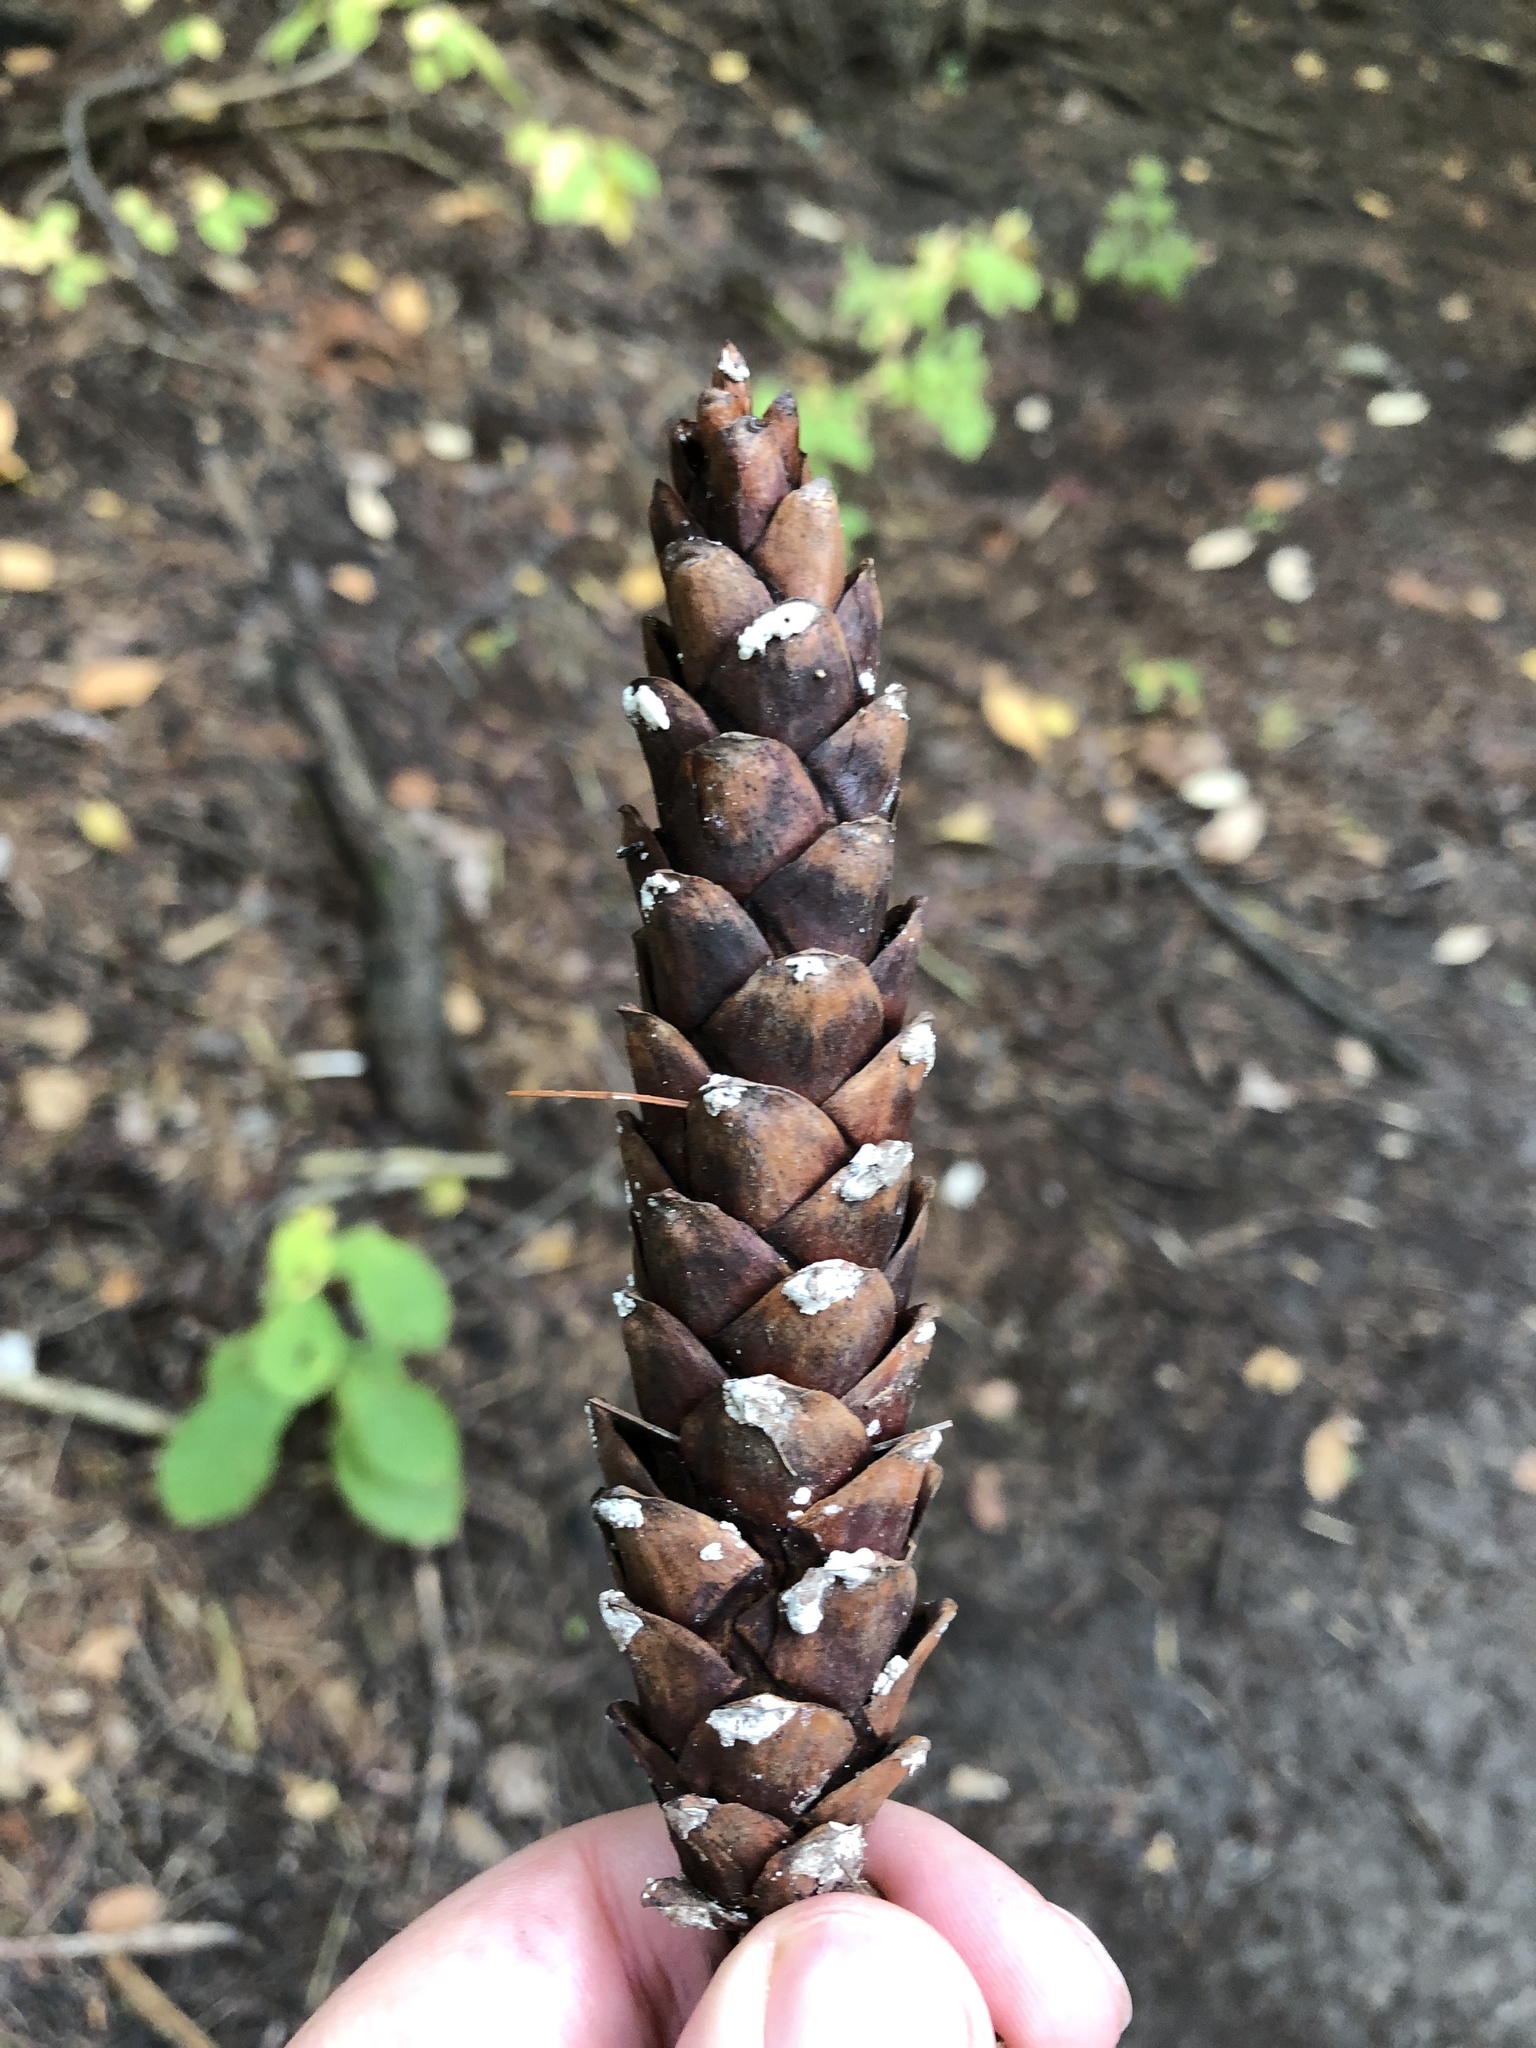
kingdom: Plantae
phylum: Tracheophyta
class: Pinopsida
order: Pinales
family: Pinaceae
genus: Pinus
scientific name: Pinus strobus
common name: Weymouth pine
